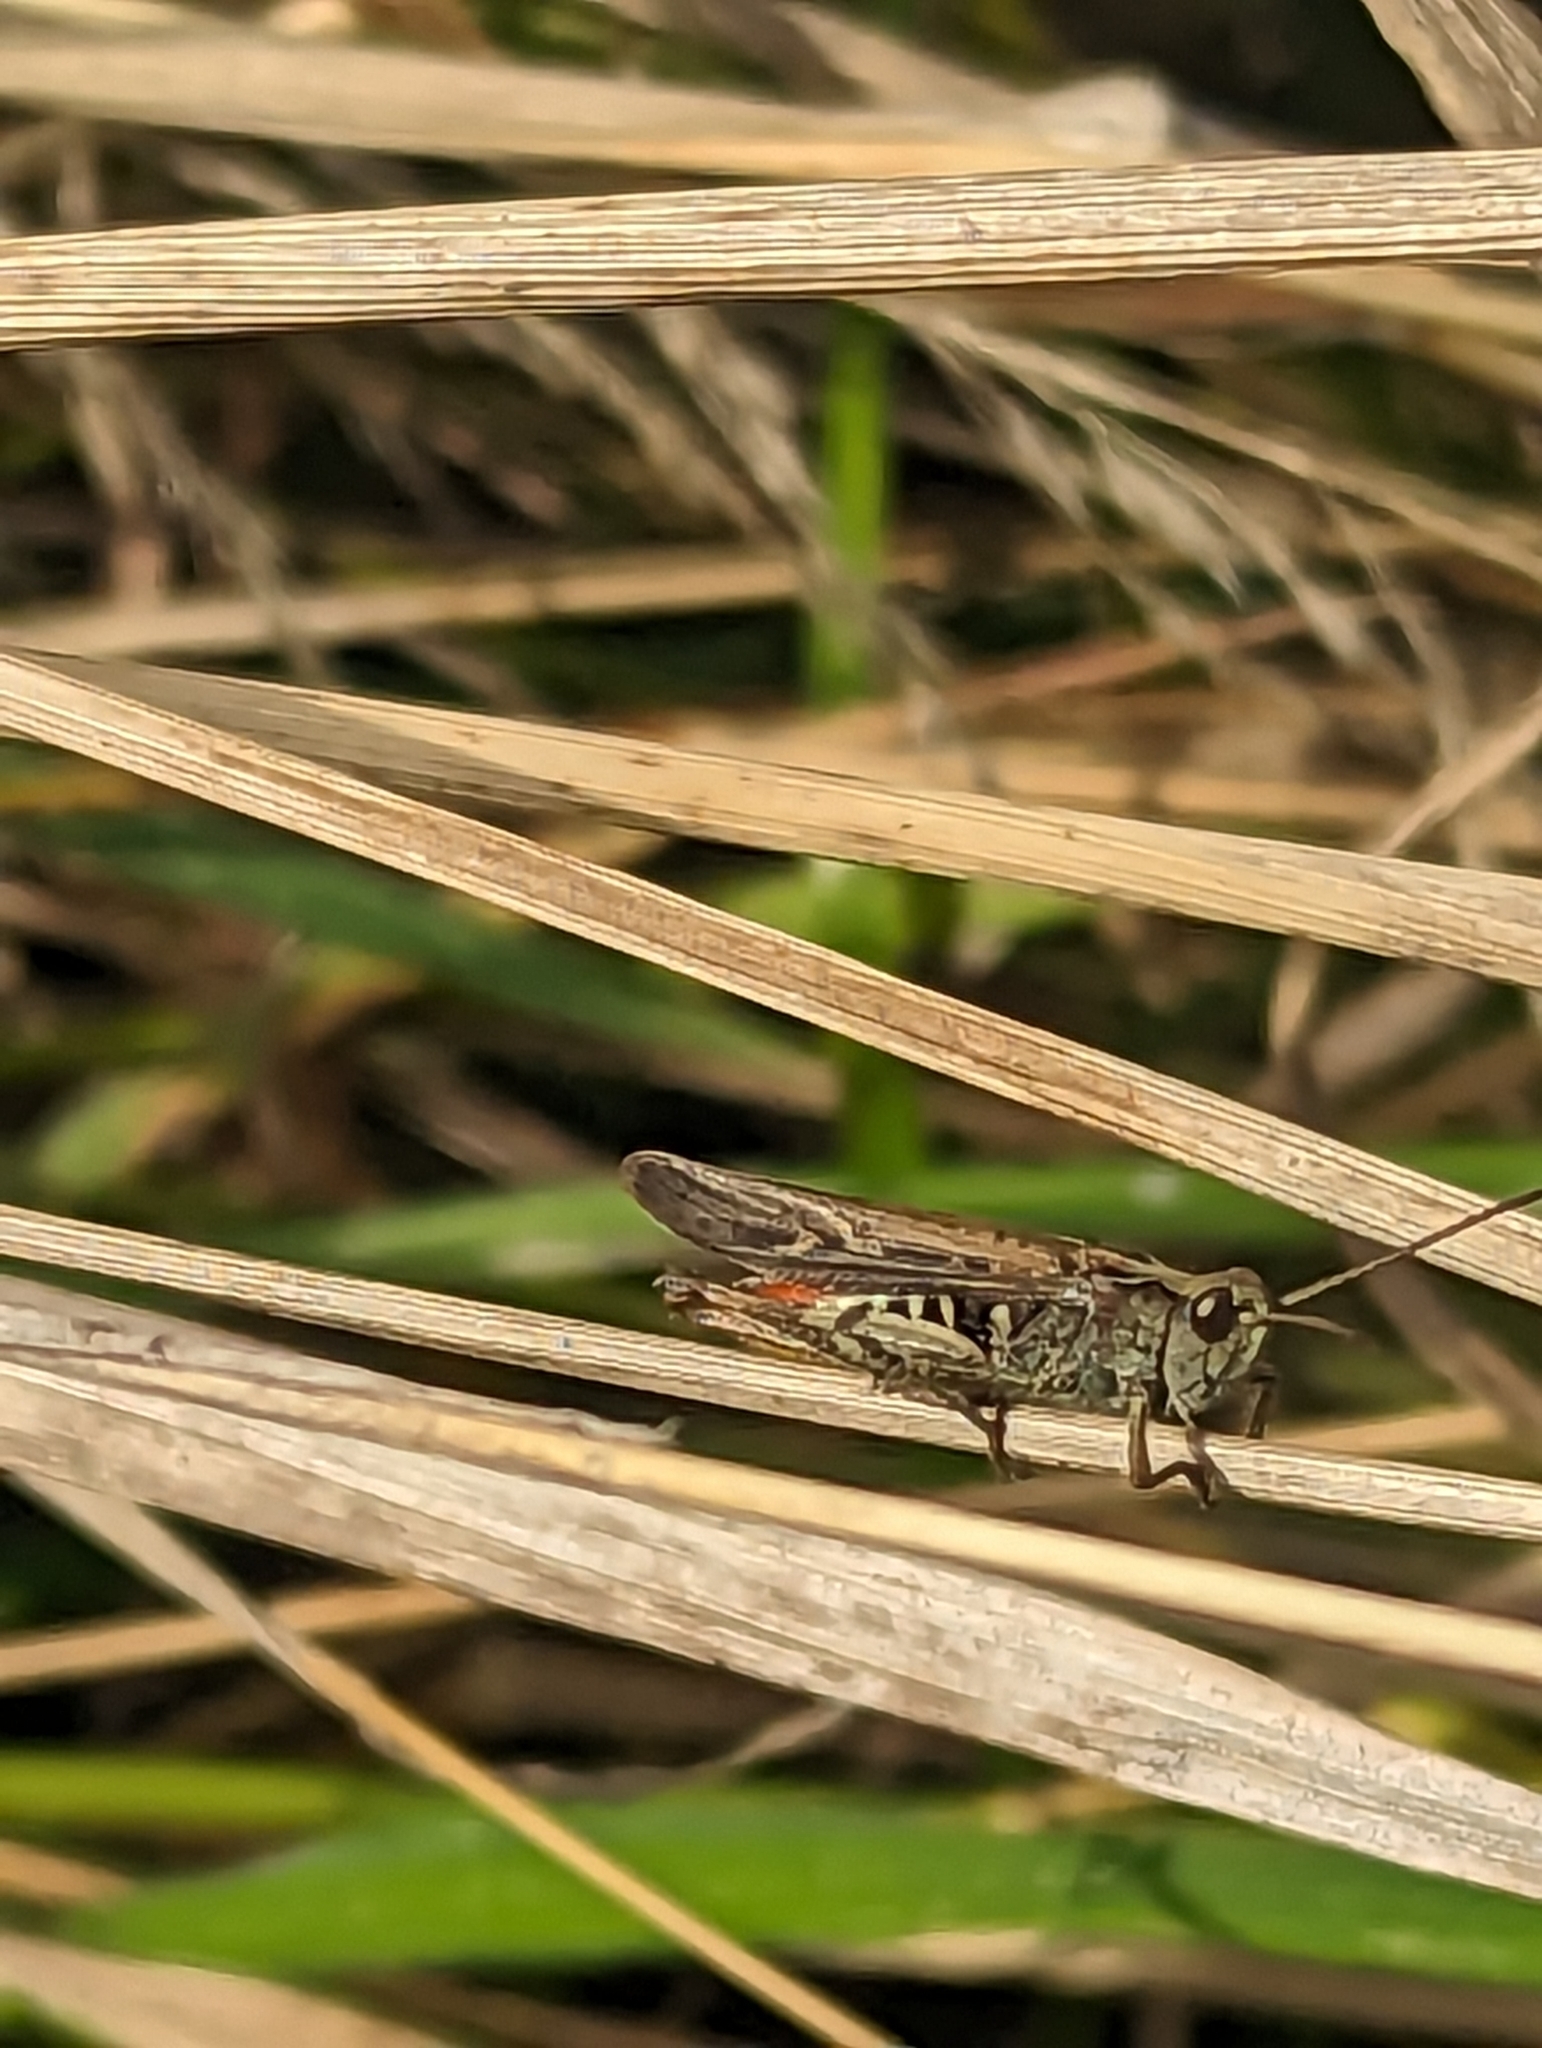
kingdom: Animalia
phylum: Arthropoda
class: Insecta
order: Orthoptera
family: Acrididae
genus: Chorthippus
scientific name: Chorthippus brunneus
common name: Field grasshopper
